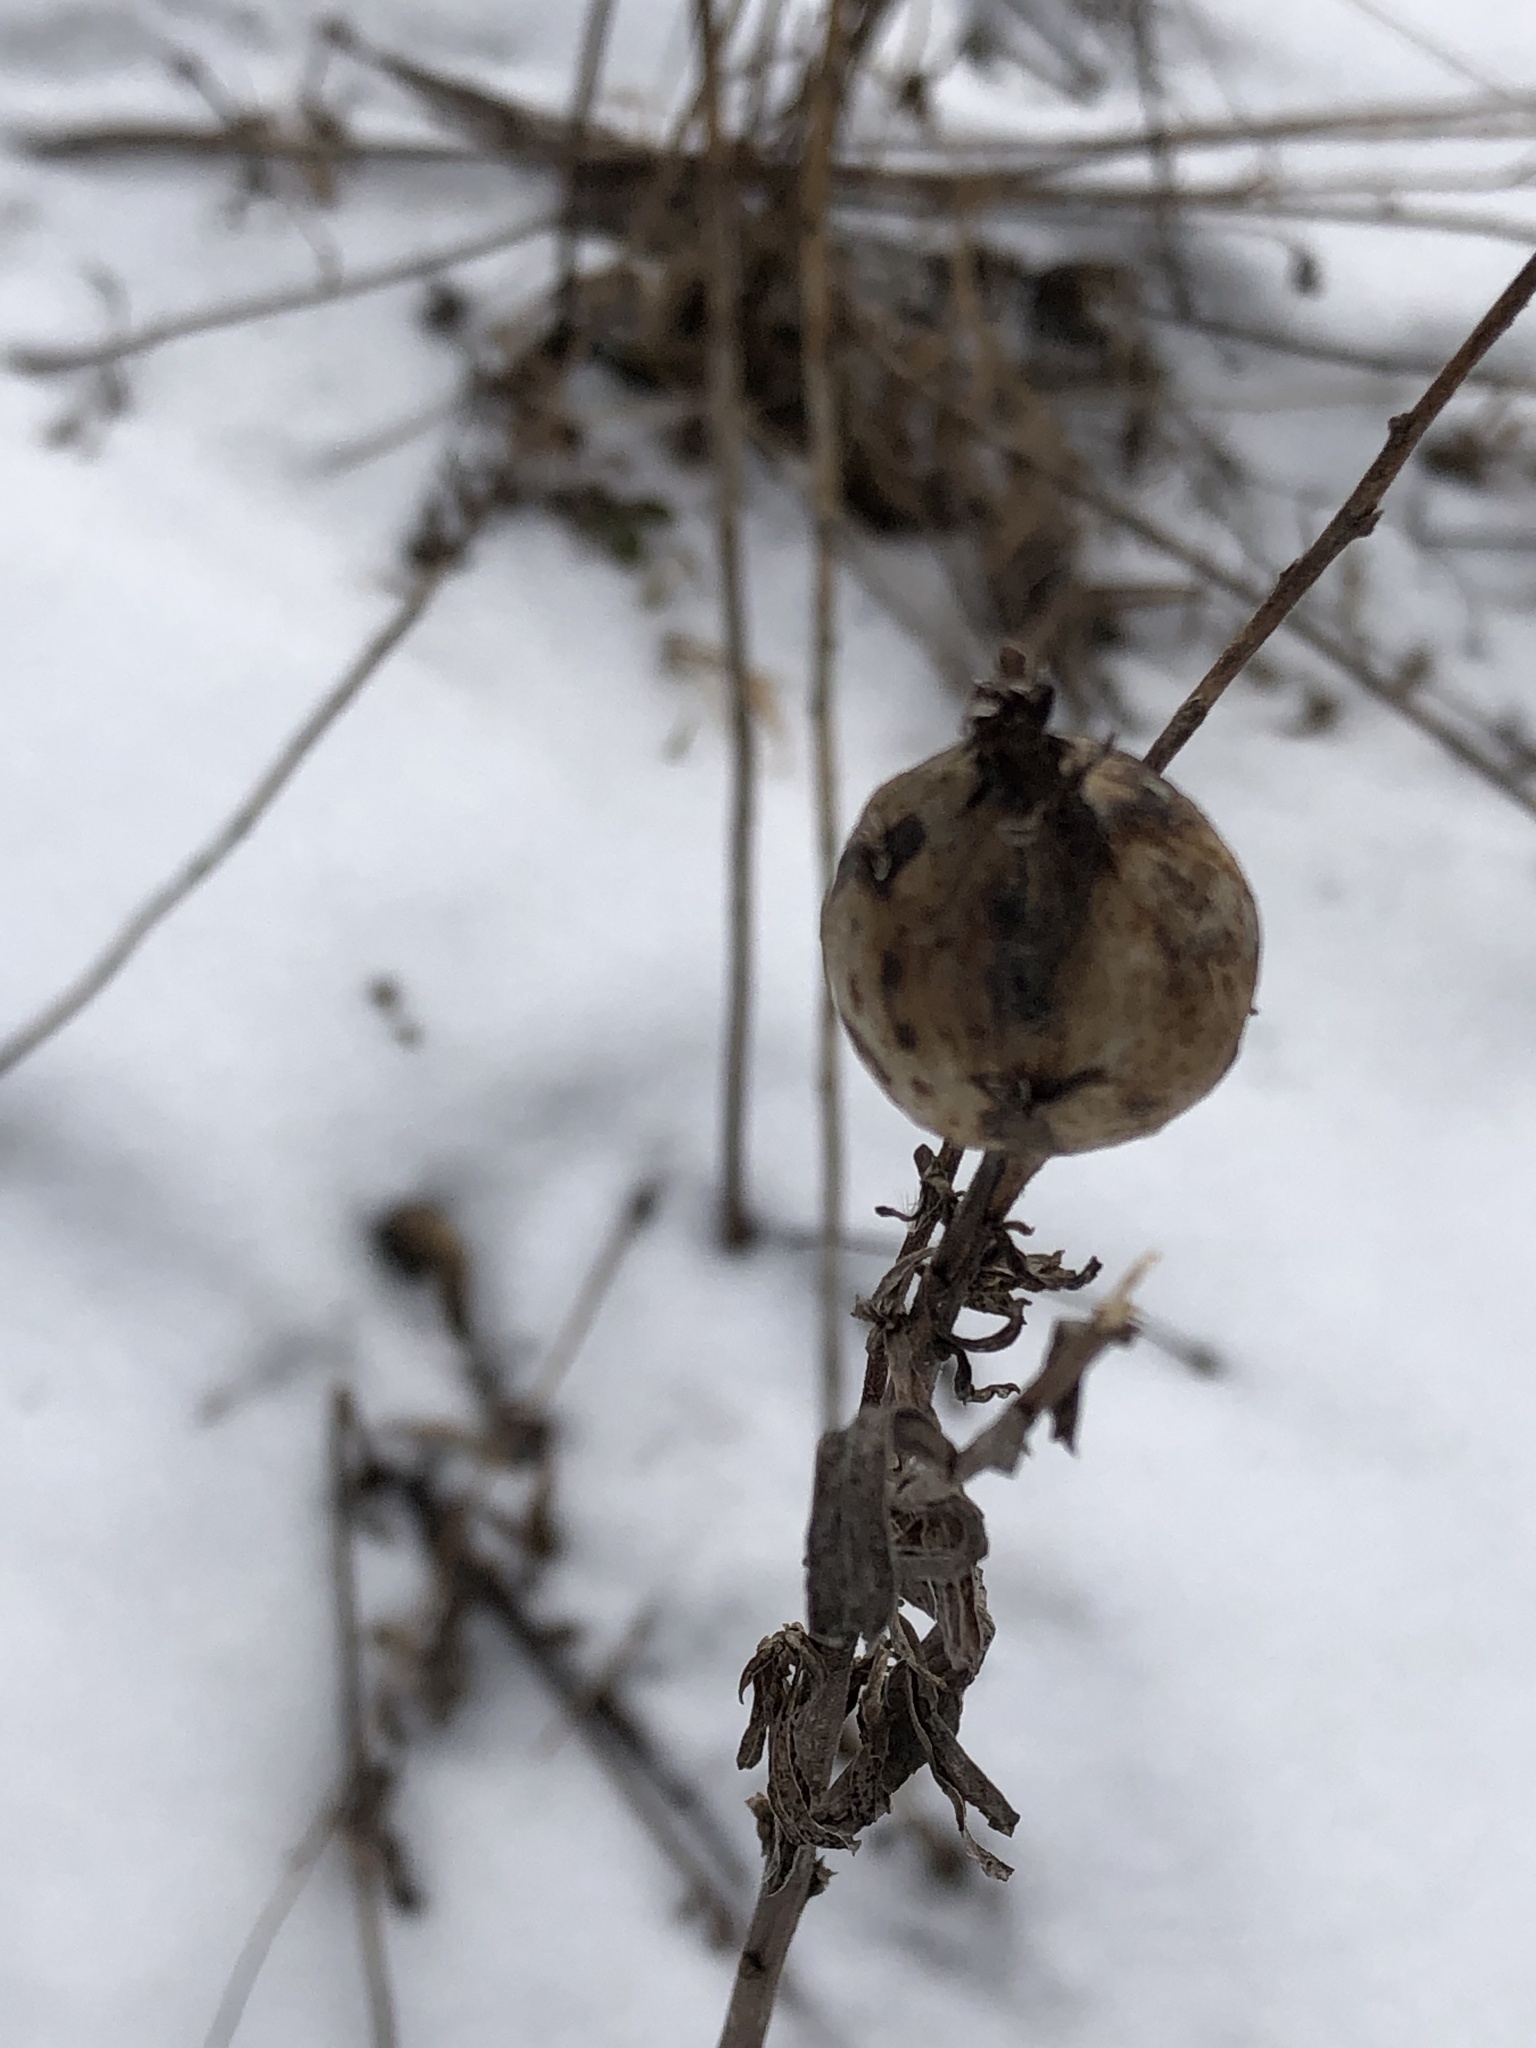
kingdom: Animalia
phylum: Arthropoda
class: Insecta
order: Diptera
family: Tephritidae
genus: Eurosta
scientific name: Eurosta solidaginis
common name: Goldenrod gall fly
